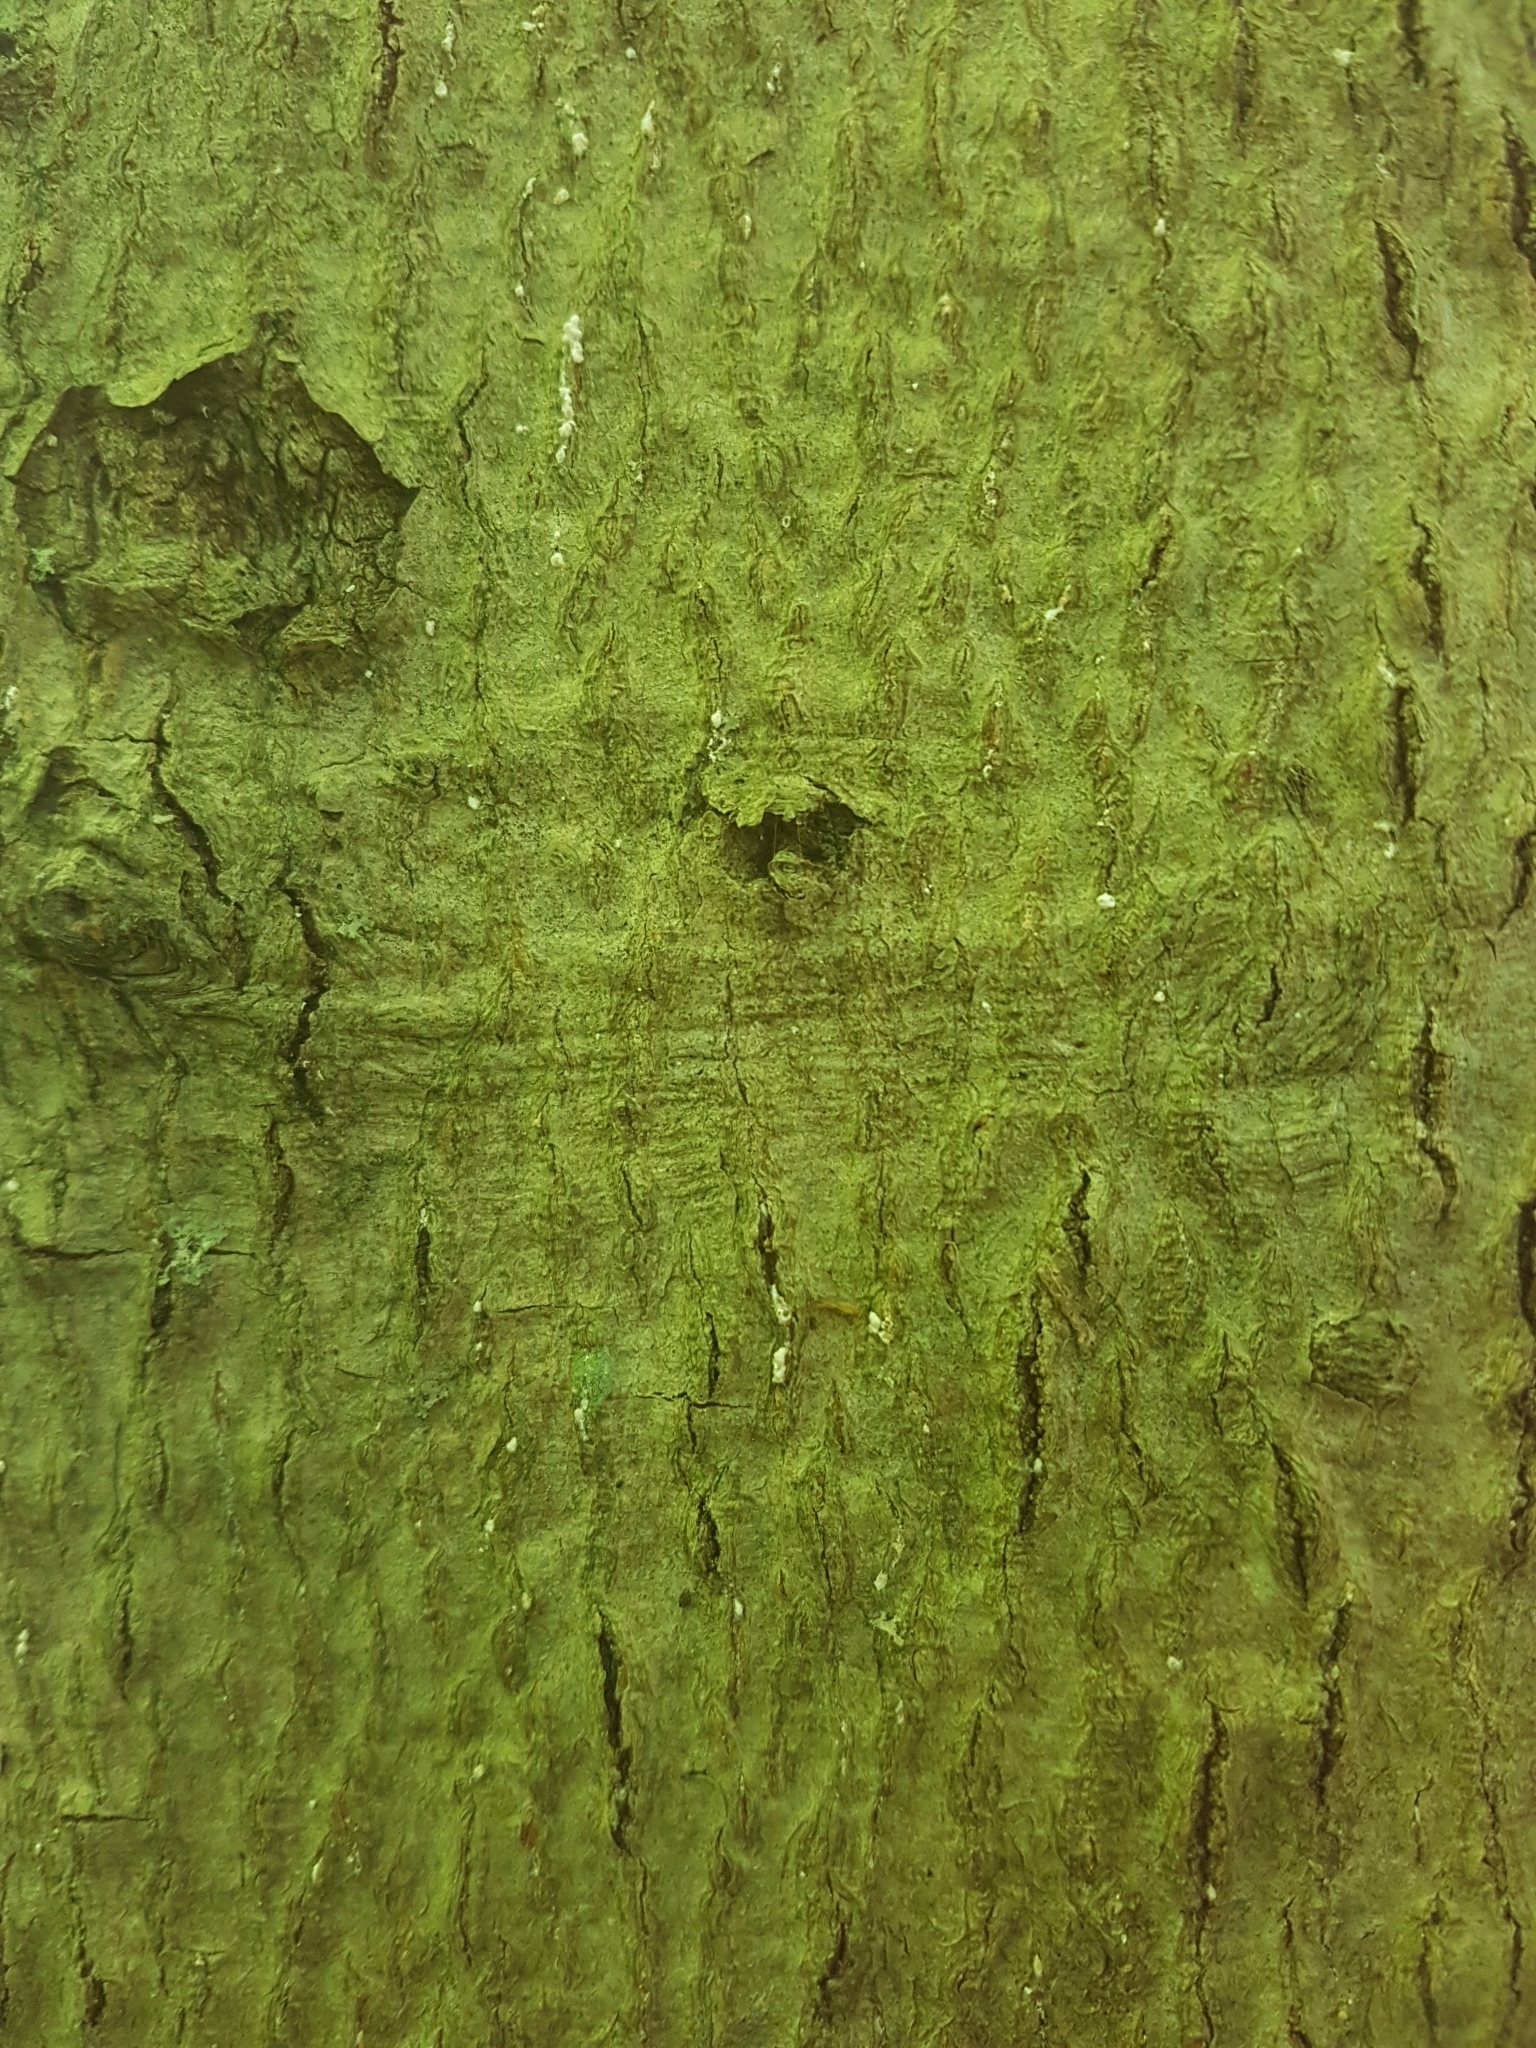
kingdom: Animalia
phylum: Arthropoda
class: Insecta
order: Hemiptera
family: Eriococcidae
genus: Cryptococcus
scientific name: Cryptococcus fagisuga
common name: Beech scale
